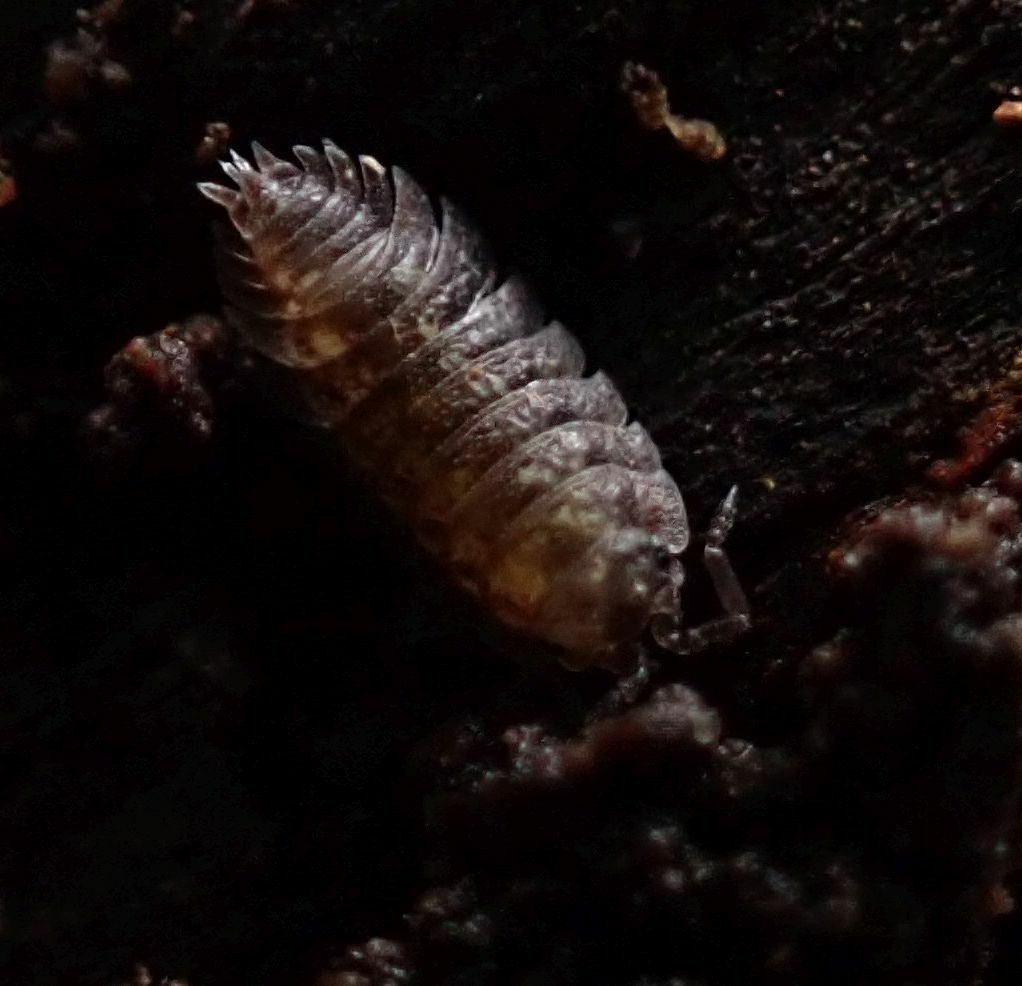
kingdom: Animalia
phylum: Arthropoda
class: Malacostraca
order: Isopoda
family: Oniscidae
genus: Oniscus
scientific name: Oniscus asellus
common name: Common shiny woodlouse
